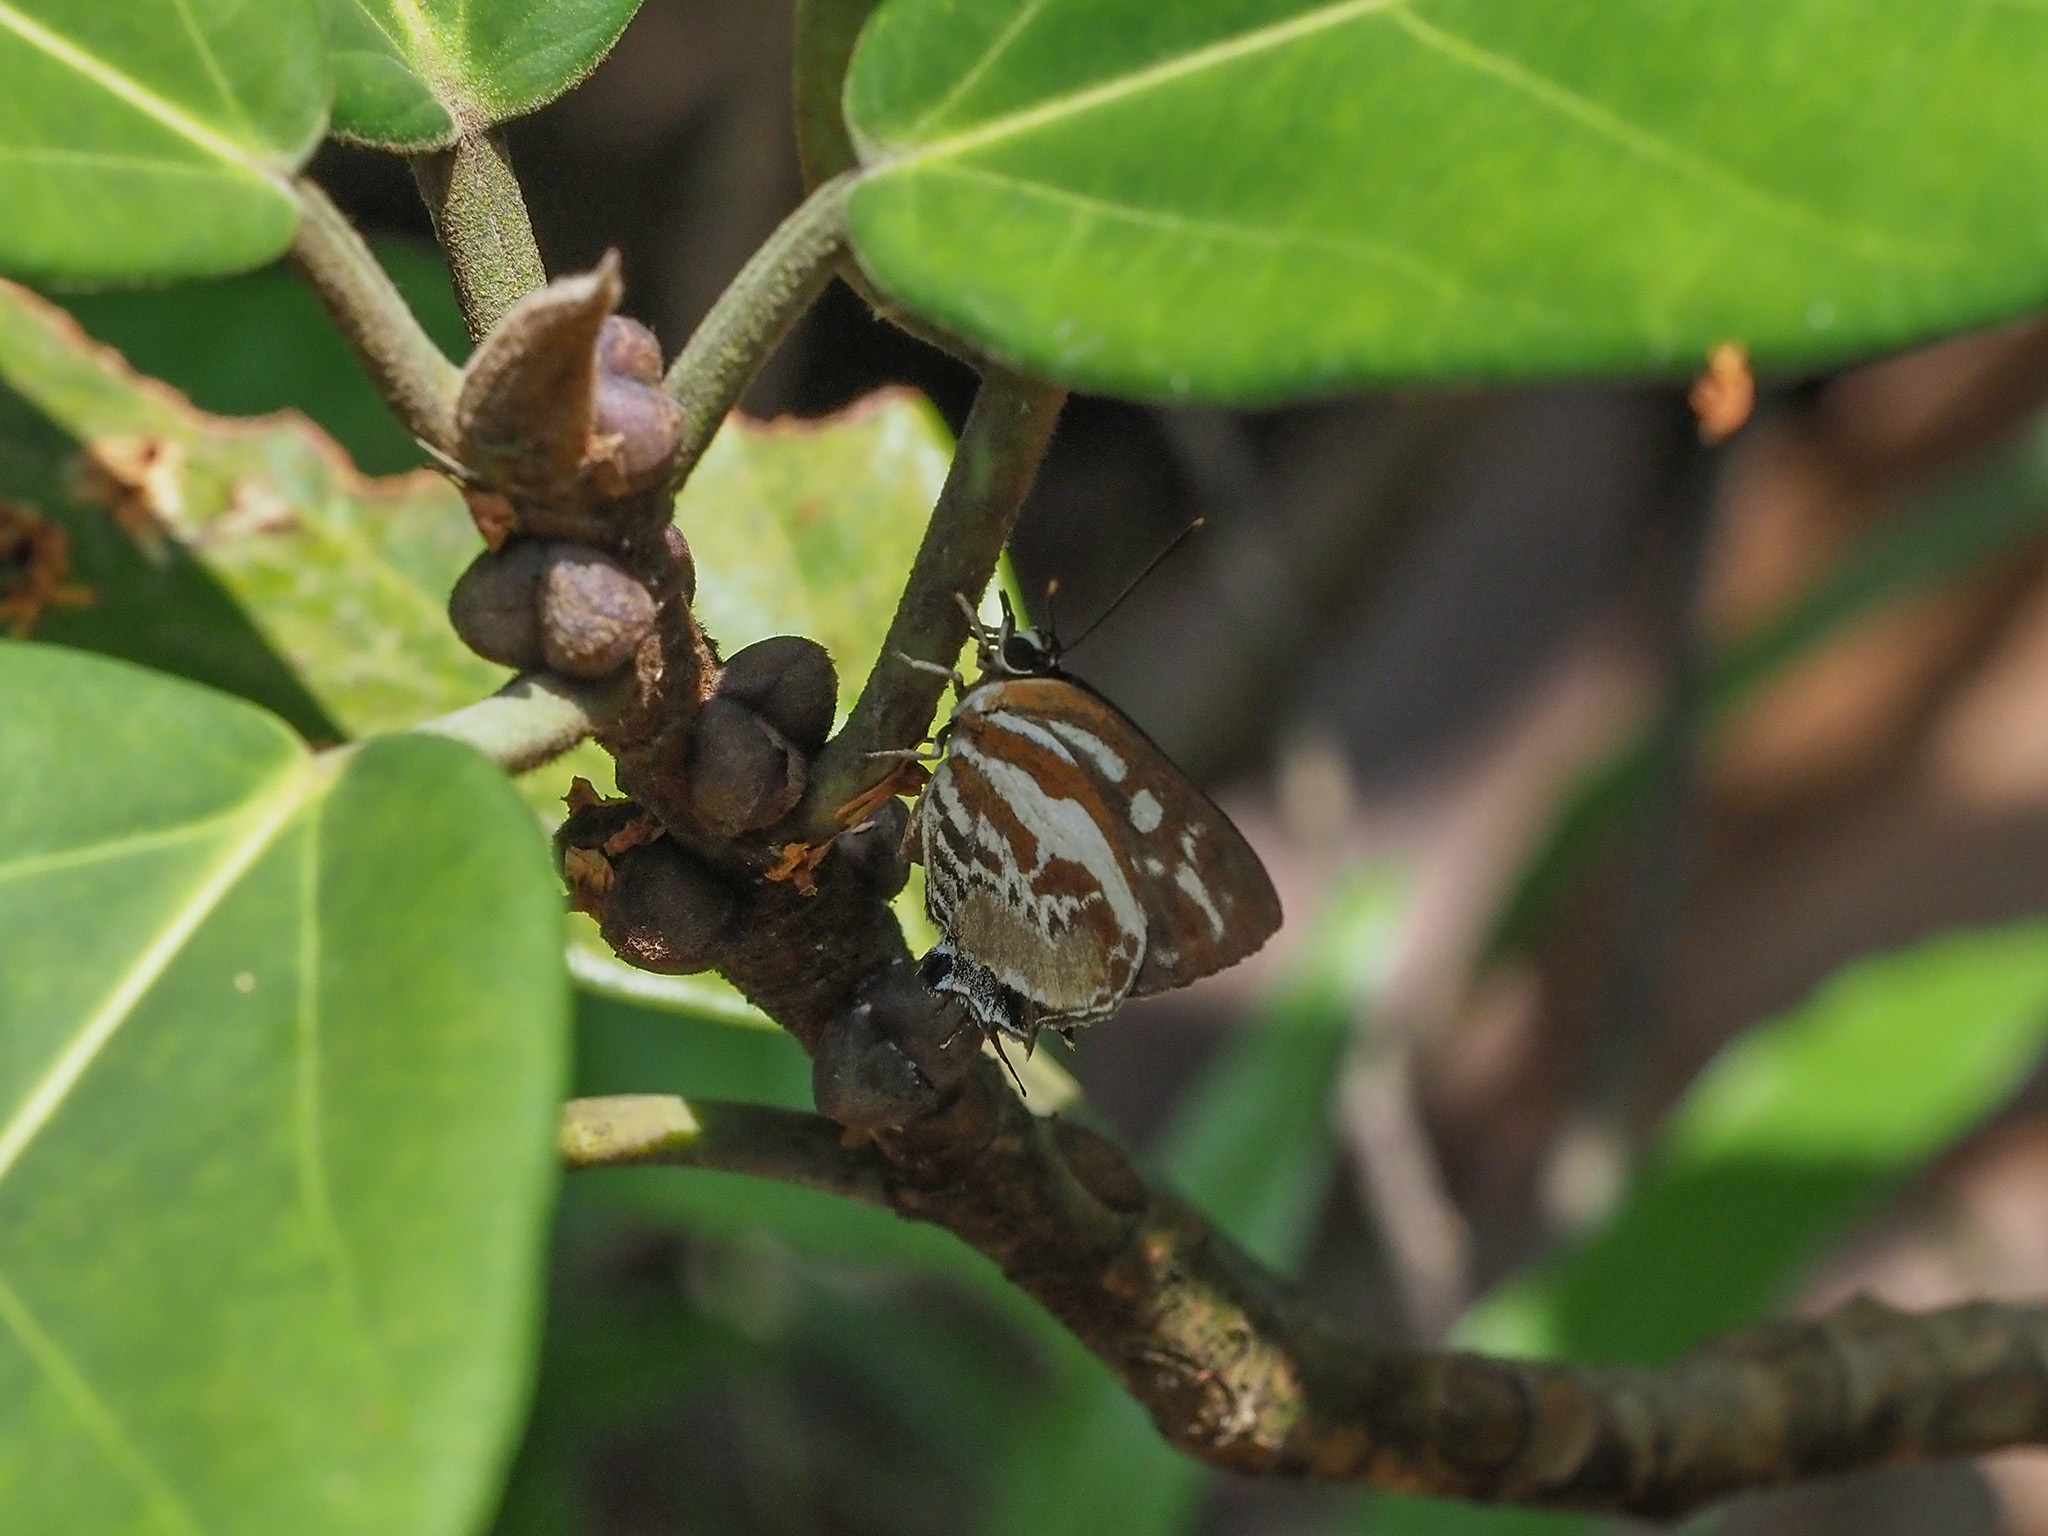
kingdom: Animalia
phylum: Arthropoda
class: Insecta
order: Lepidoptera
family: Lycaenidae
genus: Iraota
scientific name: Iraota rochana
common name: Scarce silverstreak blue
